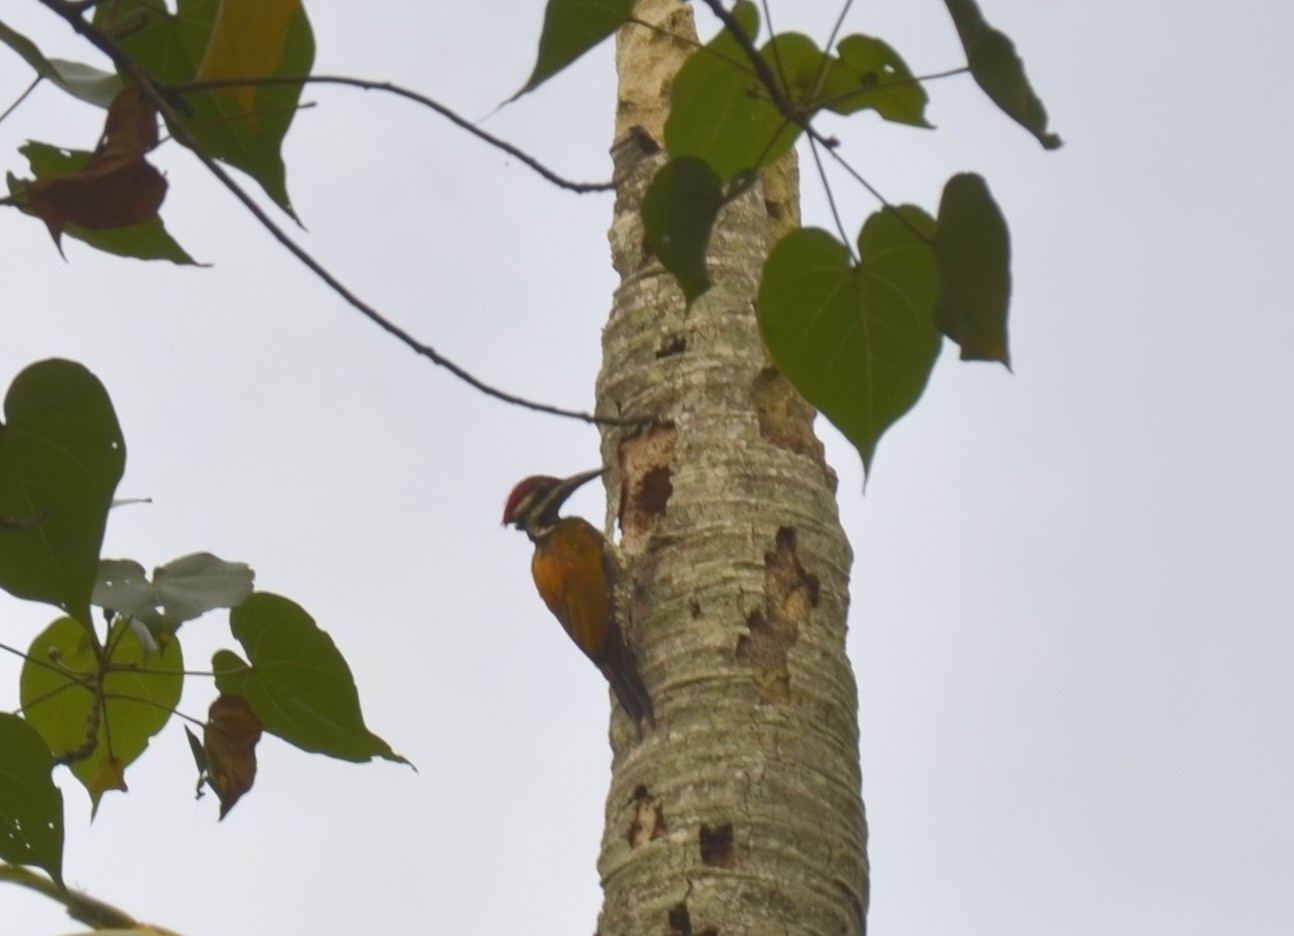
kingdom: Animalia
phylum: Chordata
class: Aves
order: Piciformes
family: Picidae
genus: Dinopium
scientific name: Dinopium benghalense
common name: Black-rumped flameback
